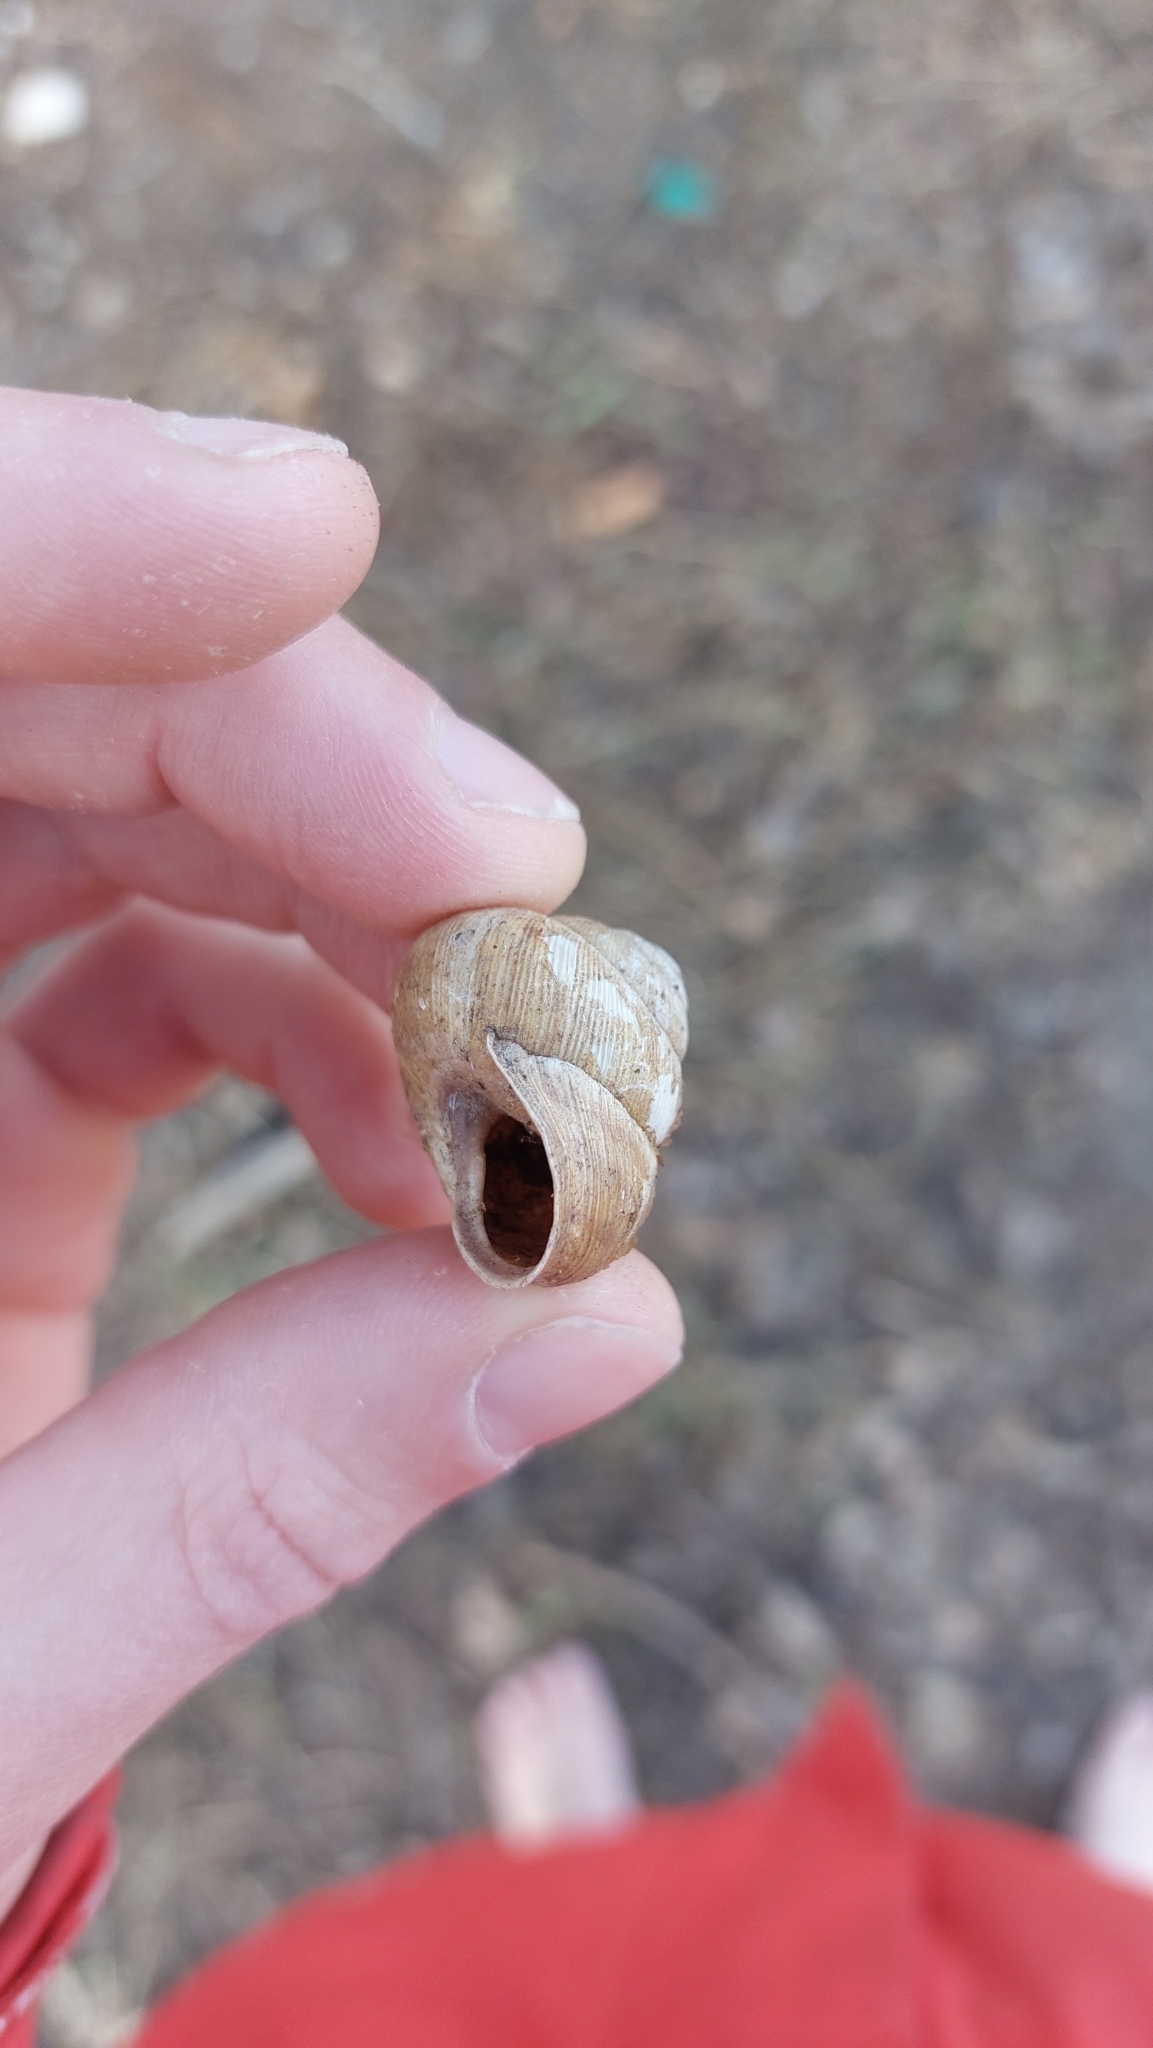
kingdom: Animalia
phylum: Mollusca
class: Gastropoda
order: Stylommatophora
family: Helicidae
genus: Caucasotachea
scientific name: Caucasotachea vindobonensis
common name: European helicid land snail
